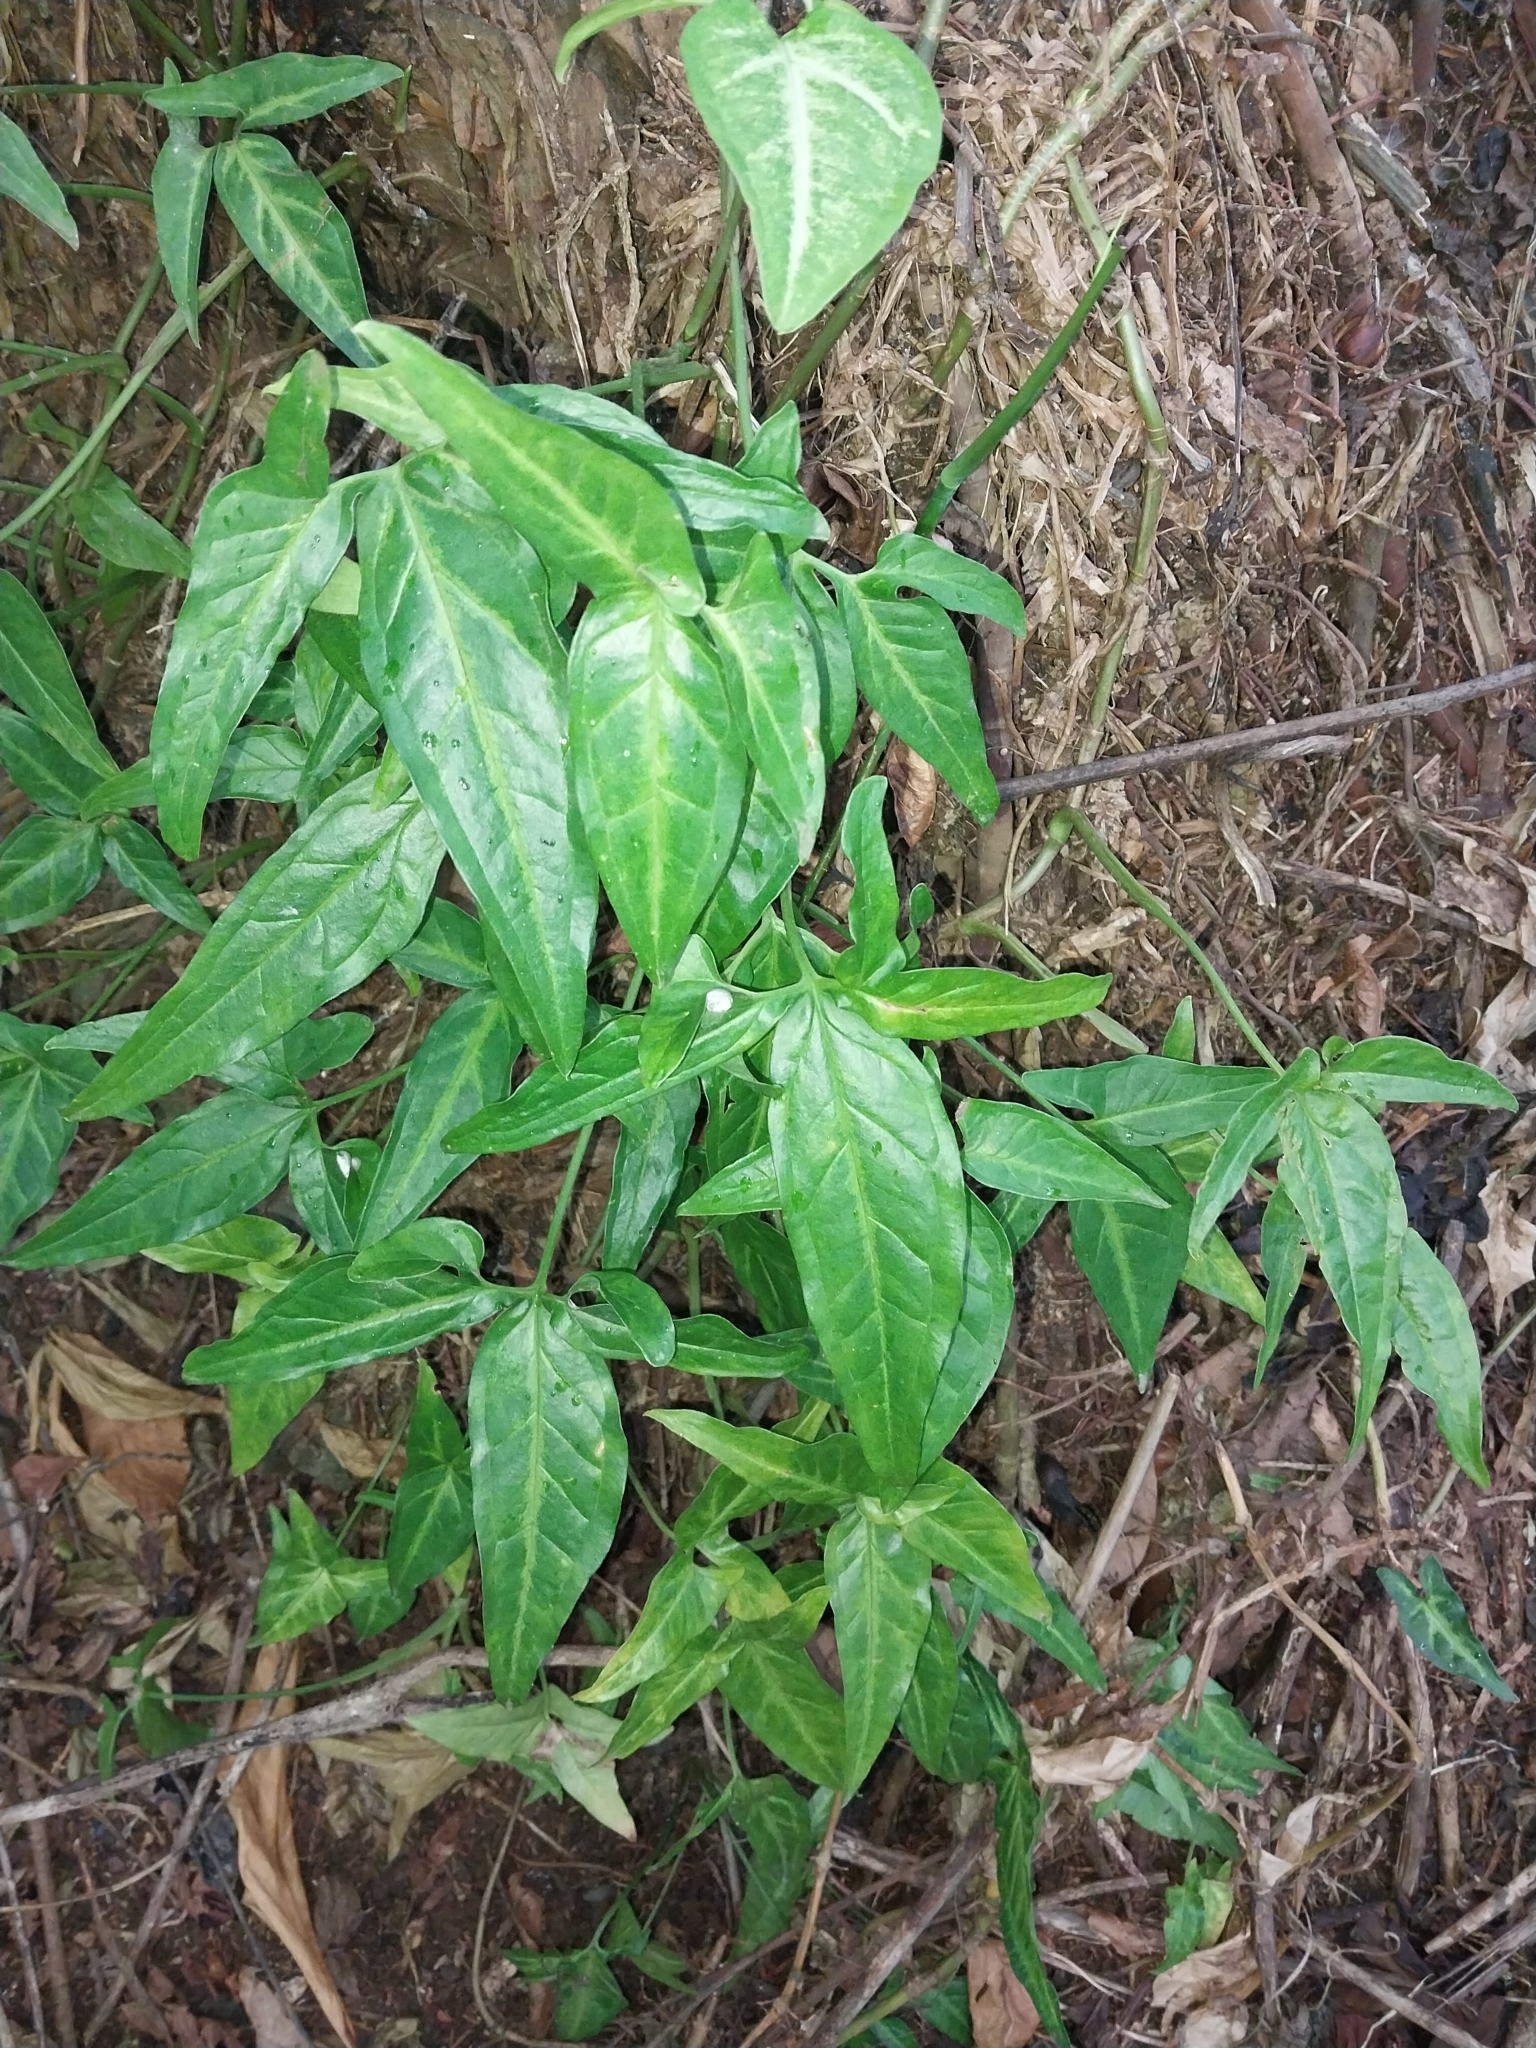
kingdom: Plantae
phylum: Tracheophyta
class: Liliopsida
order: Alismatales
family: Araceae
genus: Syngonium
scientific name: Syngonium podophyllum
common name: American evergreen
